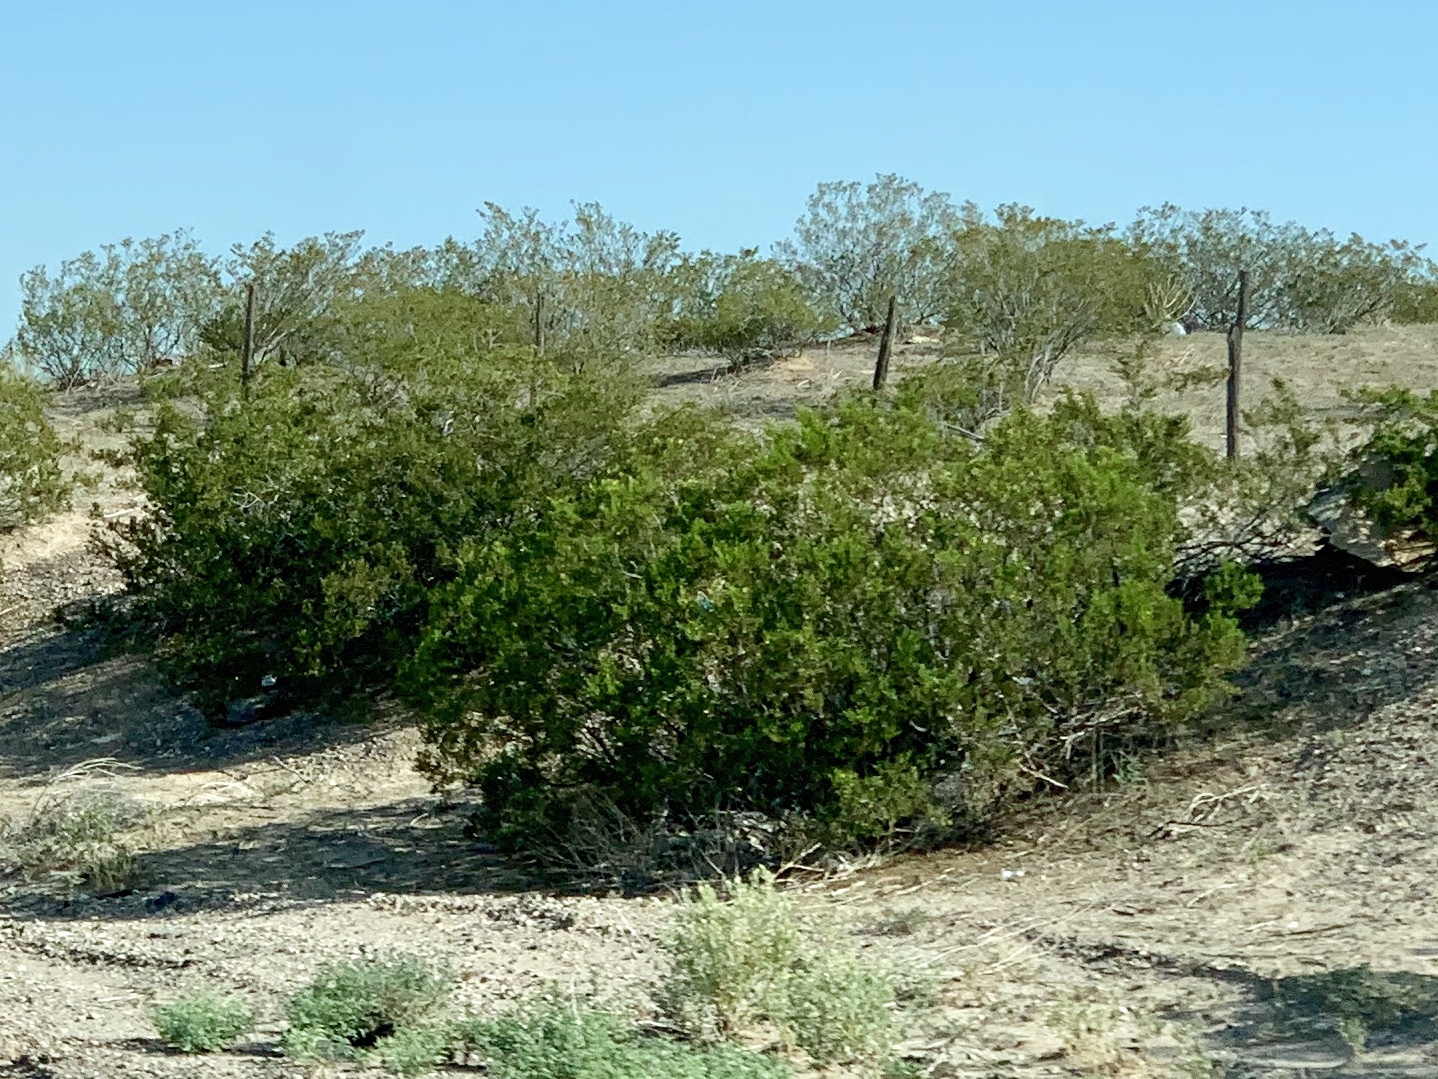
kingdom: Plantae
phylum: Tracheophyta
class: Magnoliopsida
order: Zygophyllales
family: Zygophyllaceae
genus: Larrea
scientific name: Larrea tridentata
